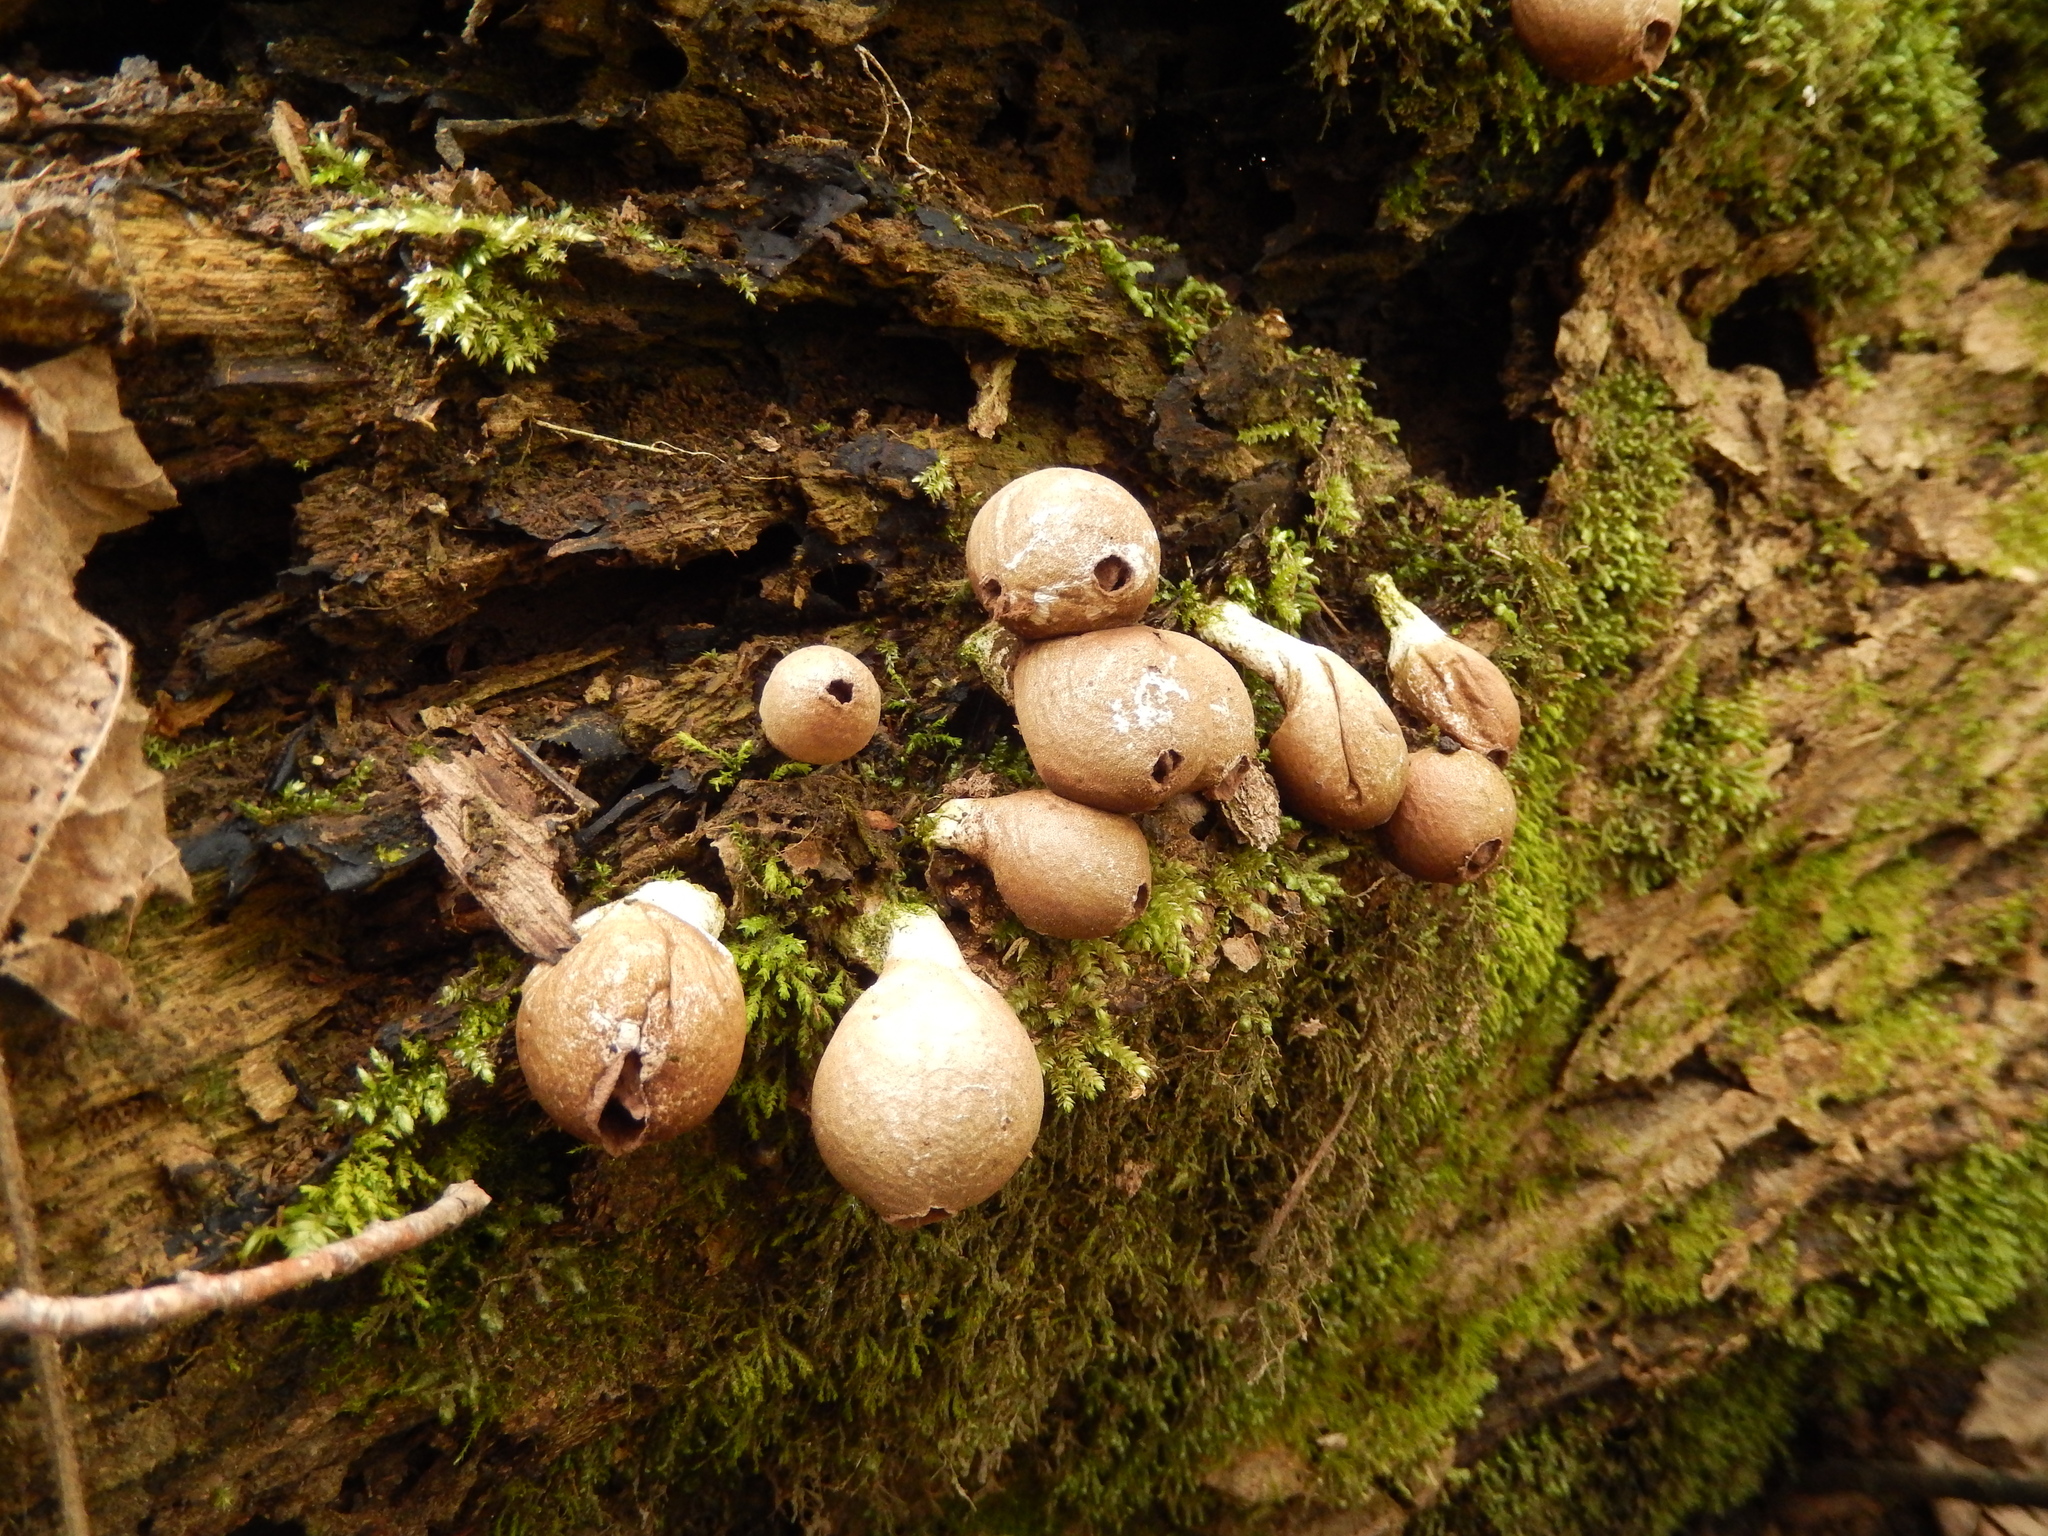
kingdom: Fungi
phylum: Basidiomycota
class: Agaricomycetes
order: Agaricales
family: Lycoperdaceae
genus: Apioperdon
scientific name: Apioperdon pyriforme
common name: Pear-shaped puffball
